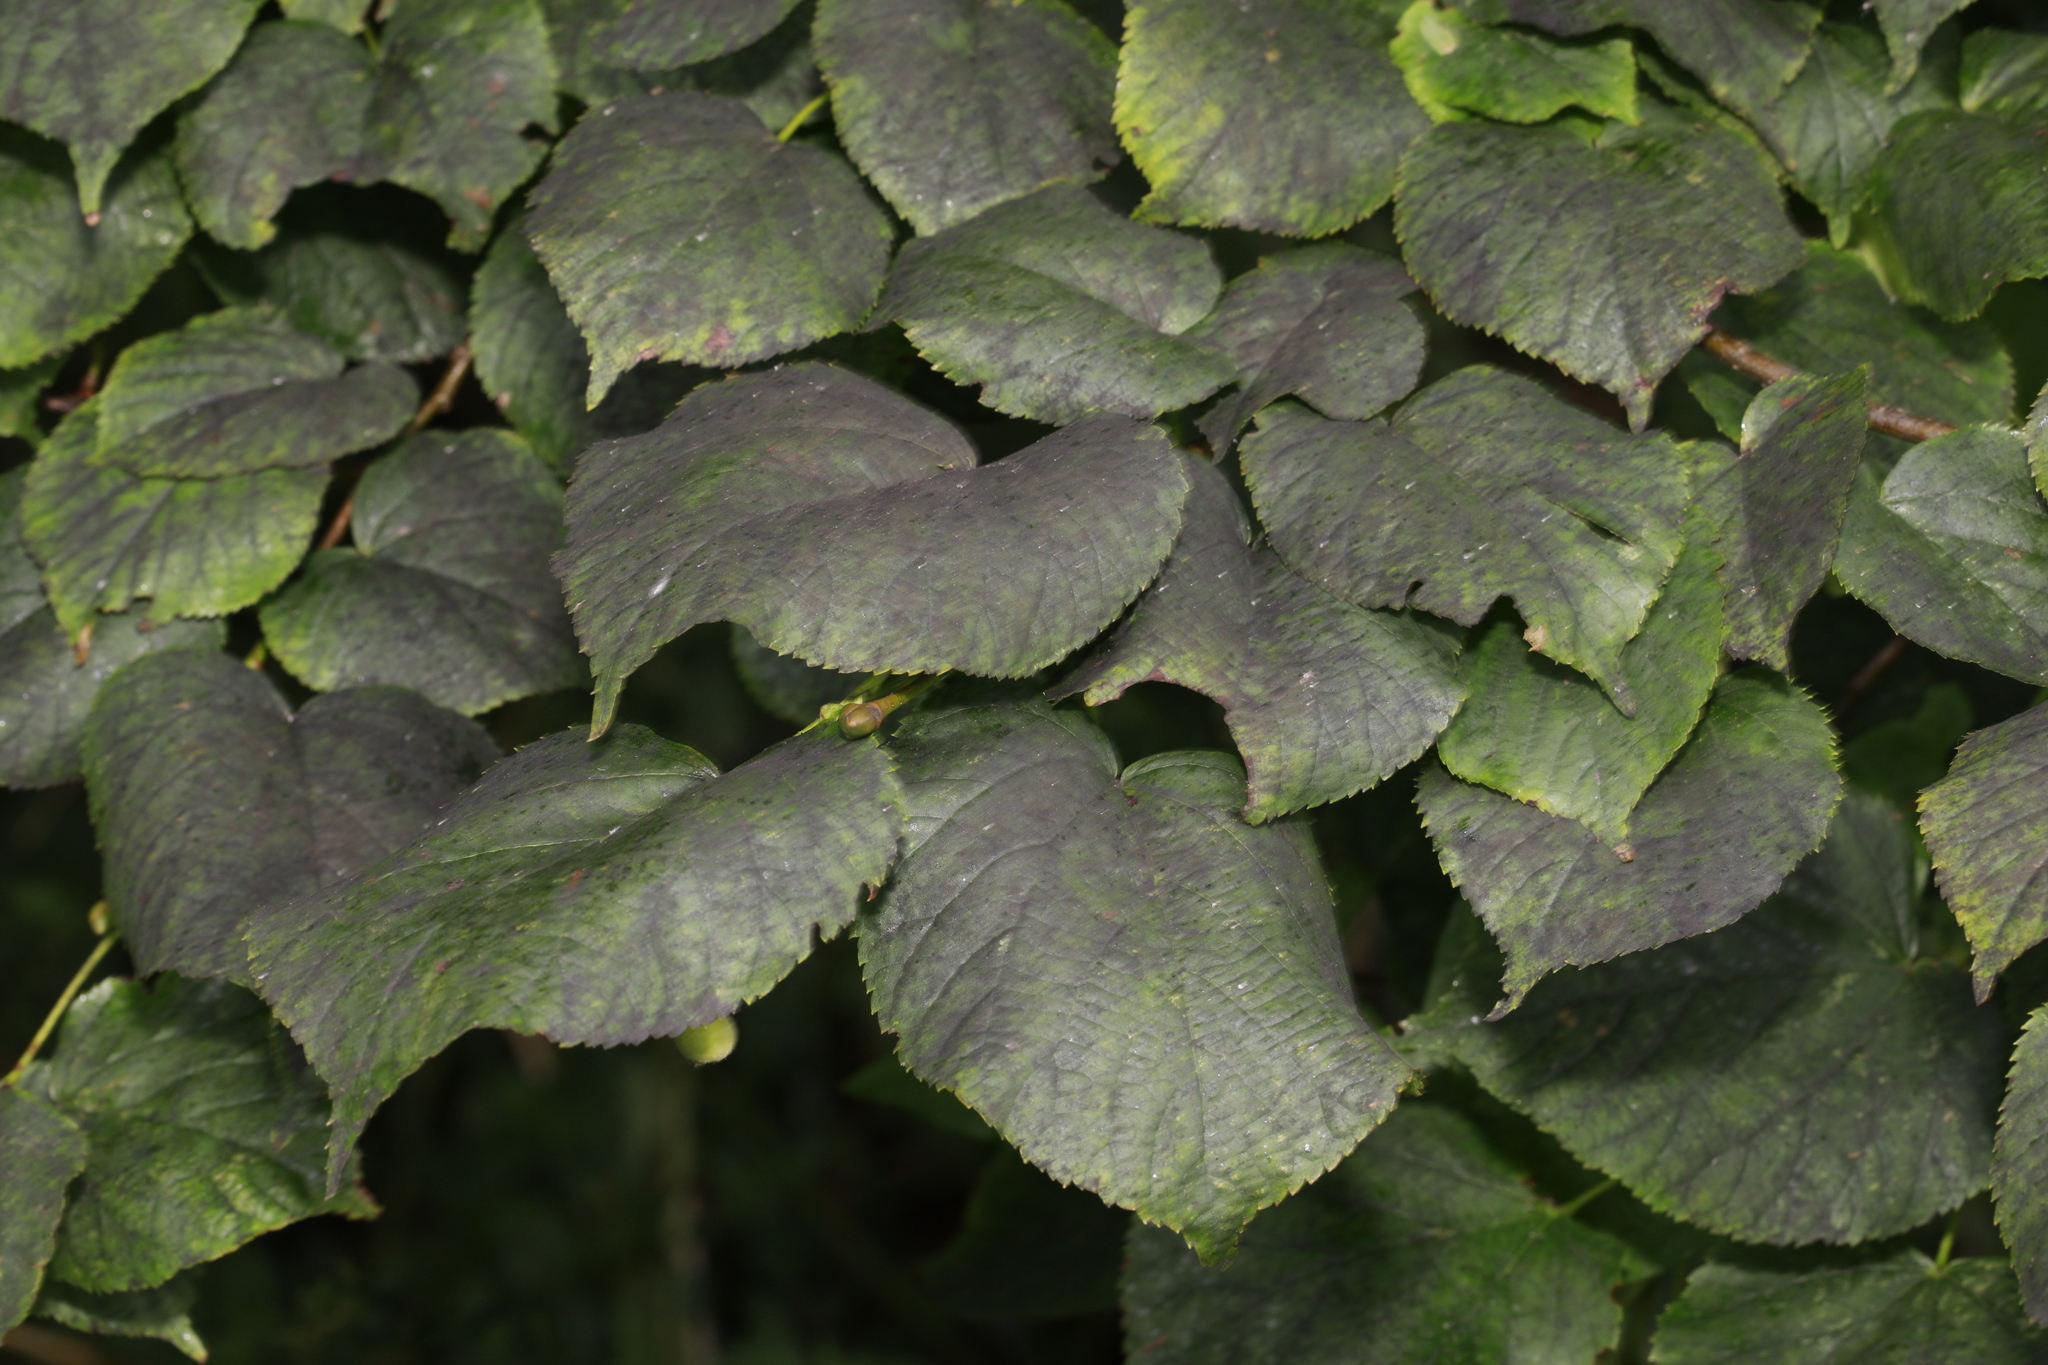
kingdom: Plantae
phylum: Tracheophyta
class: Magnoliopsida
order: Malvales
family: Malvaceae
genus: Tilia
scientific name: Tilia europaea
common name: European linden
